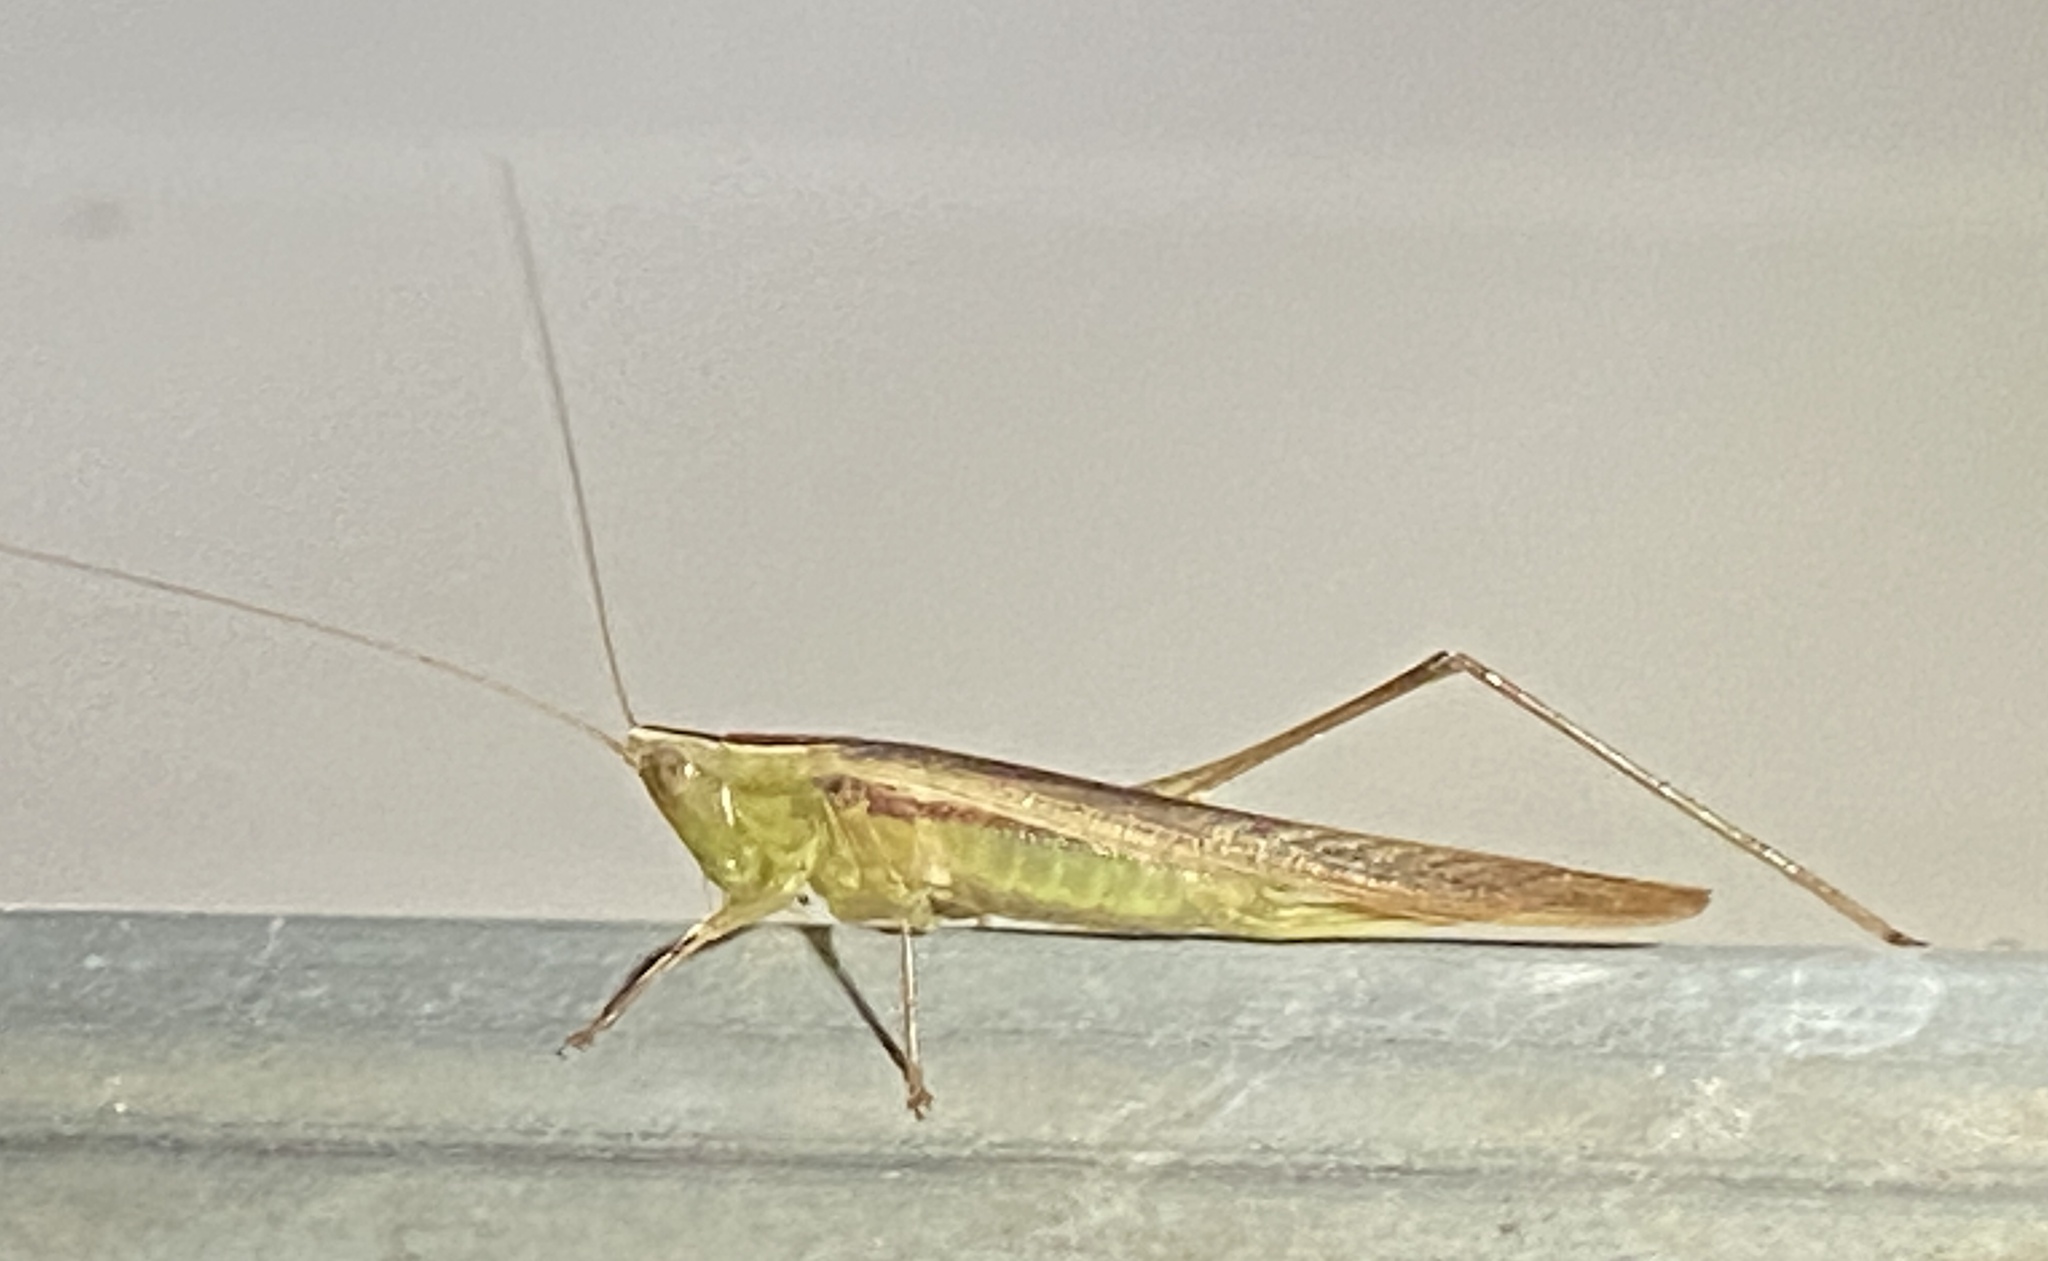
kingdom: Animalia
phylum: Arthropoda
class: Insecta
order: Orthoptera
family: Tettigoniidae
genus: Conocephalus
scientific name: Conocephalus upoluensis
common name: Upolu meadow katydid
